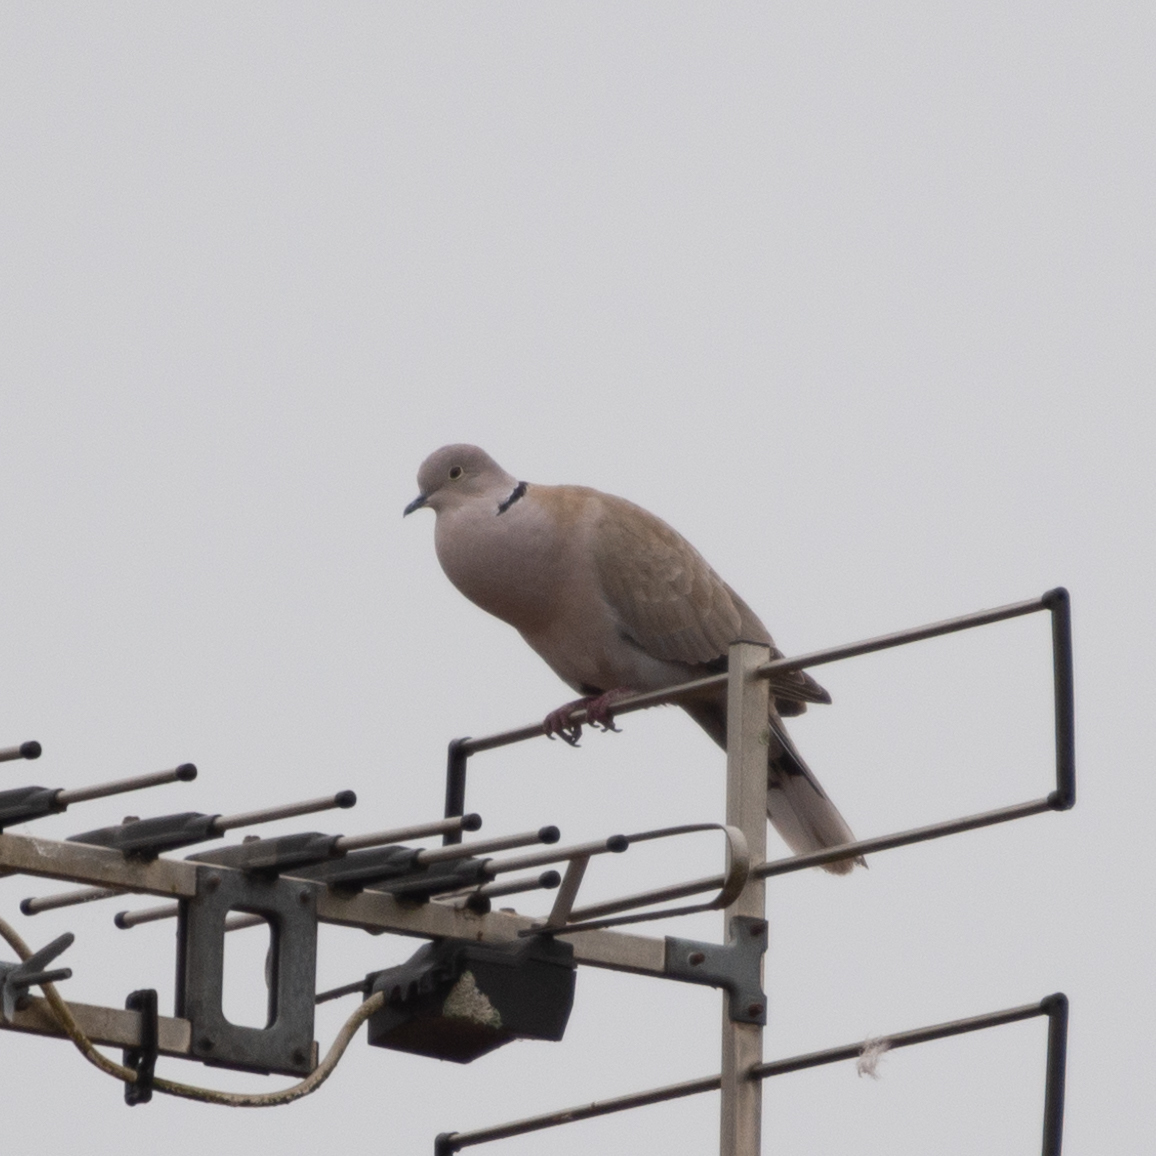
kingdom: Animalia
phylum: Chordata
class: Aves
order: Columbiformes
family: Columbidae
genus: Streptopelia
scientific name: Streptopelia decaocto
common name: Eurasian collared dove
